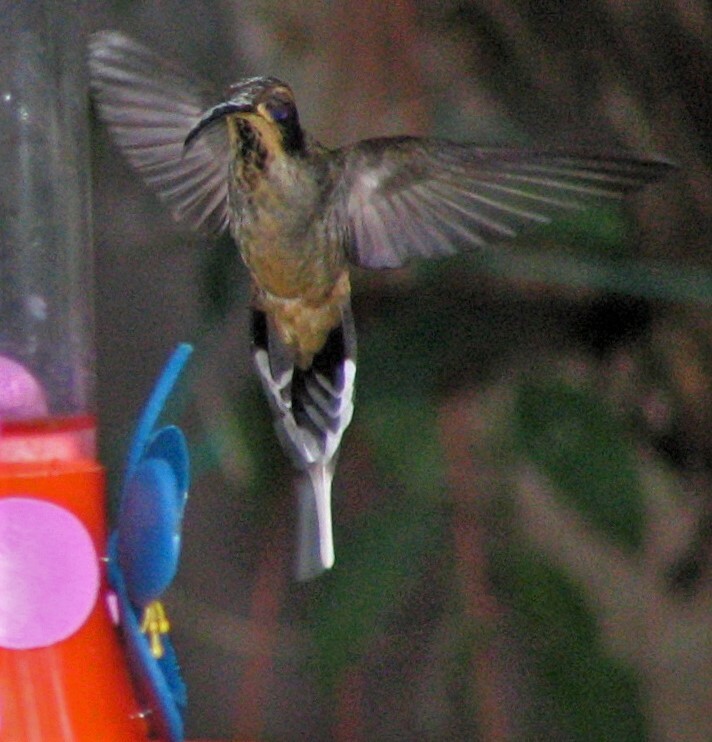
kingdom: Animalia
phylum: Chordata
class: Aves
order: Apodiformes
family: Trochilidae
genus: Phaethornis
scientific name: Phaethornis eurynome
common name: Scale-throated hermit
